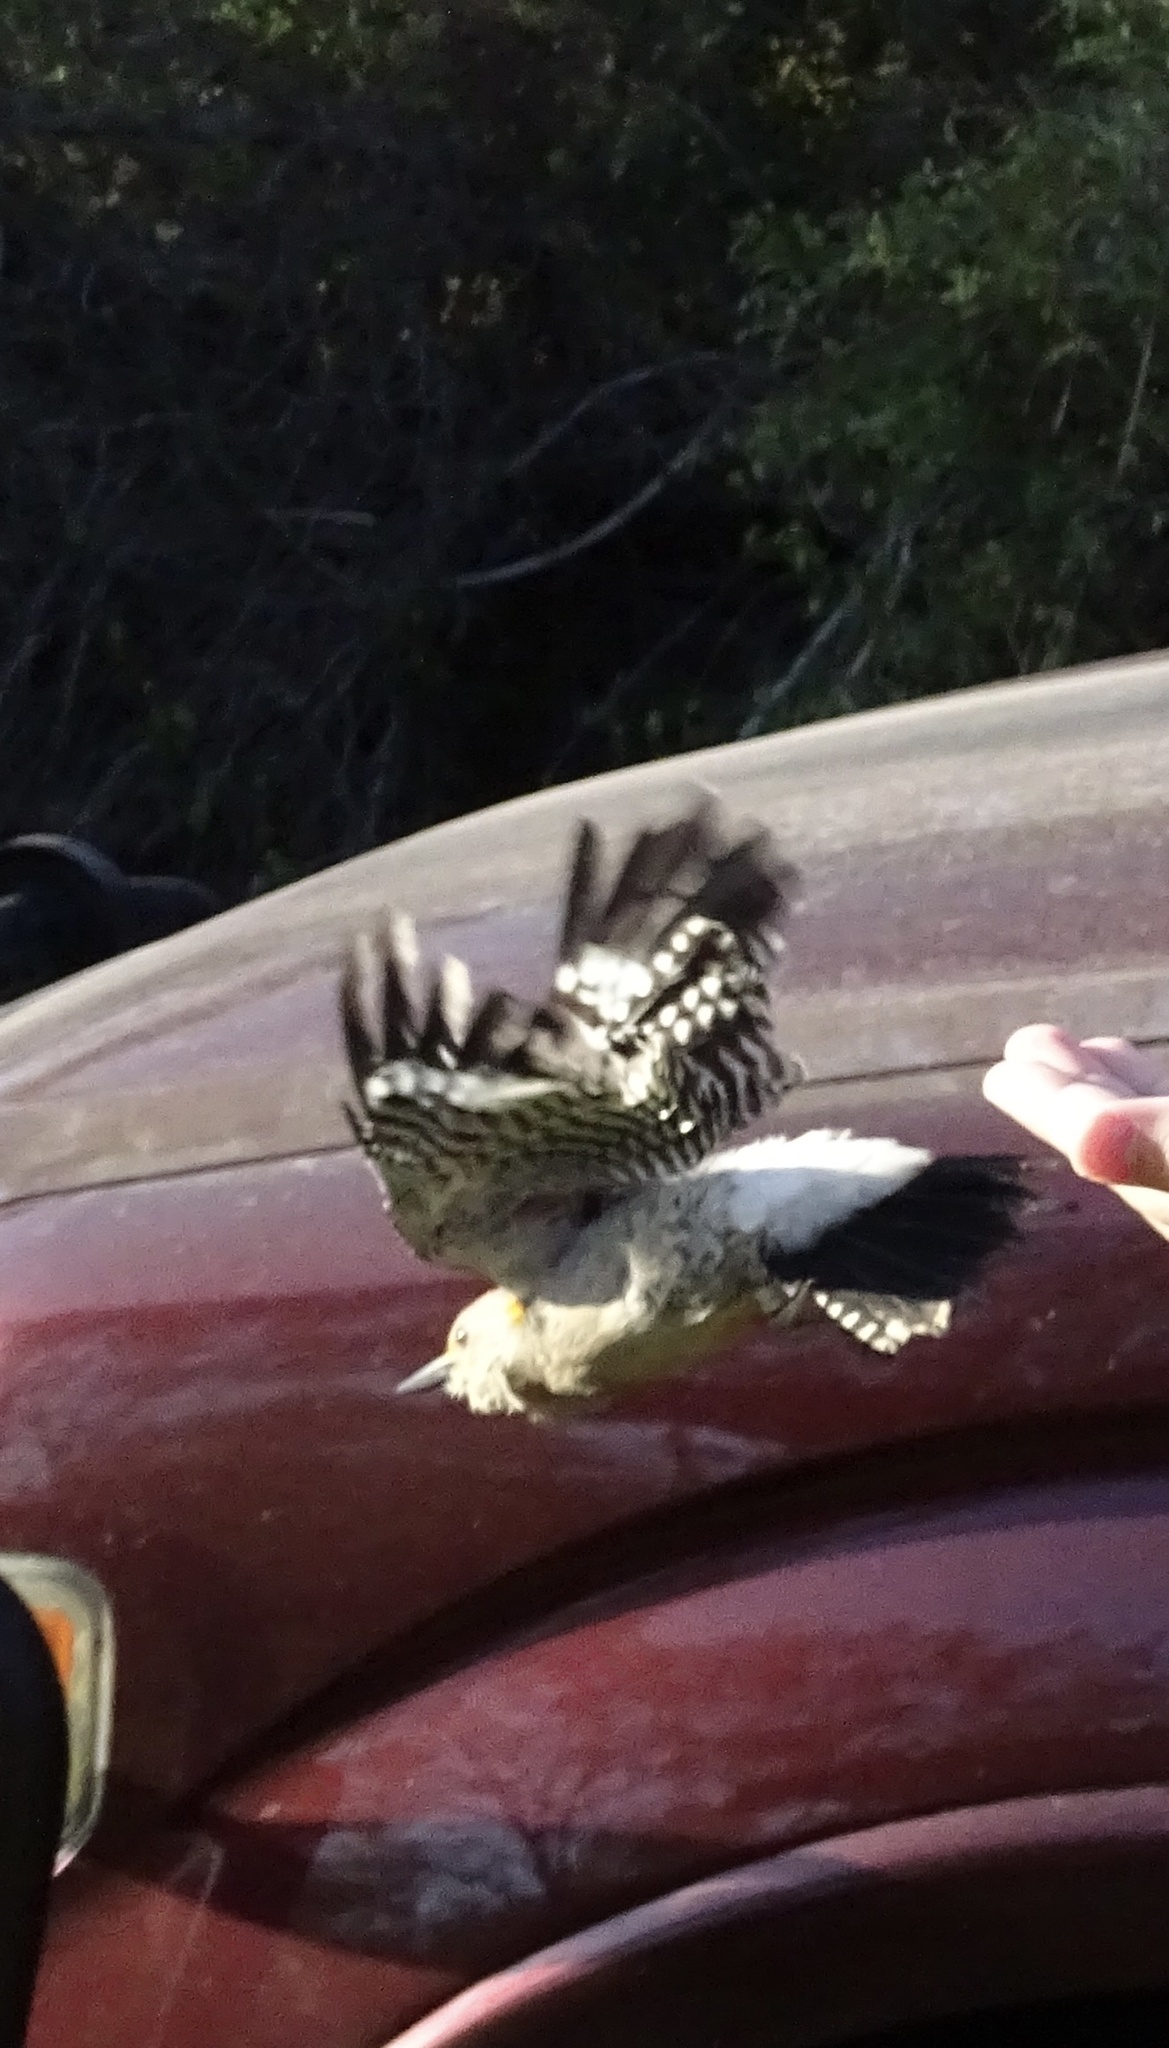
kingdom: Animalia
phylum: Chordata
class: Aves
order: Piciformes
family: Picidae
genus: Melanerpes
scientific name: Melanerpes aurifrons
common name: Golden-fronted woodpecker
